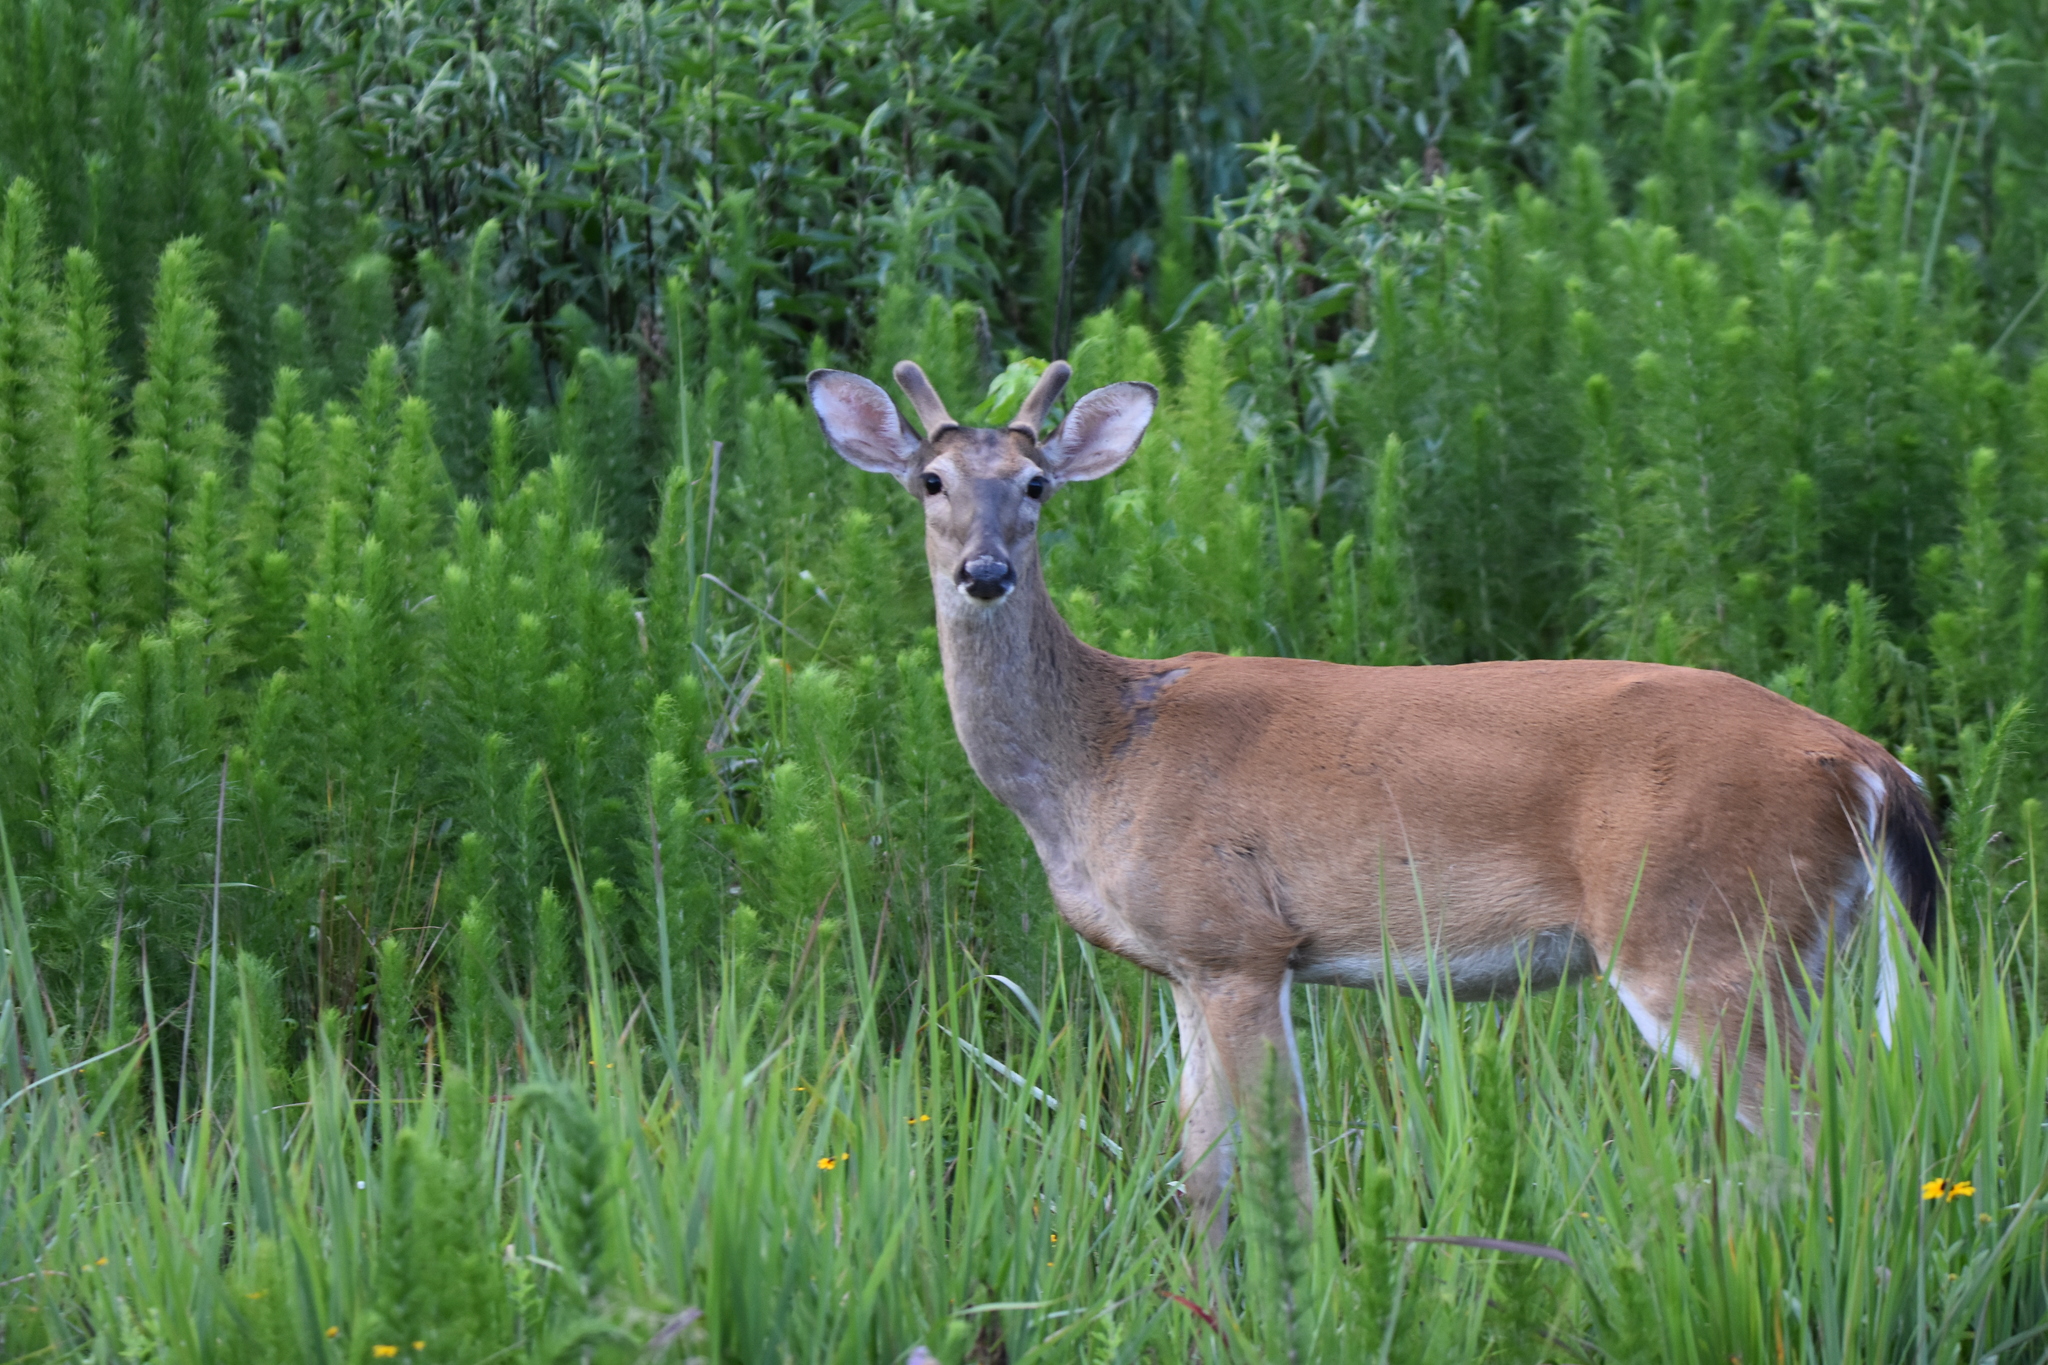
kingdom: Animalia
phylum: Chordata
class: Mammalia
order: Artiodactyla
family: Cervidae
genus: Odocoileus
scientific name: Odocoileus virginianus
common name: White-tailed deer
